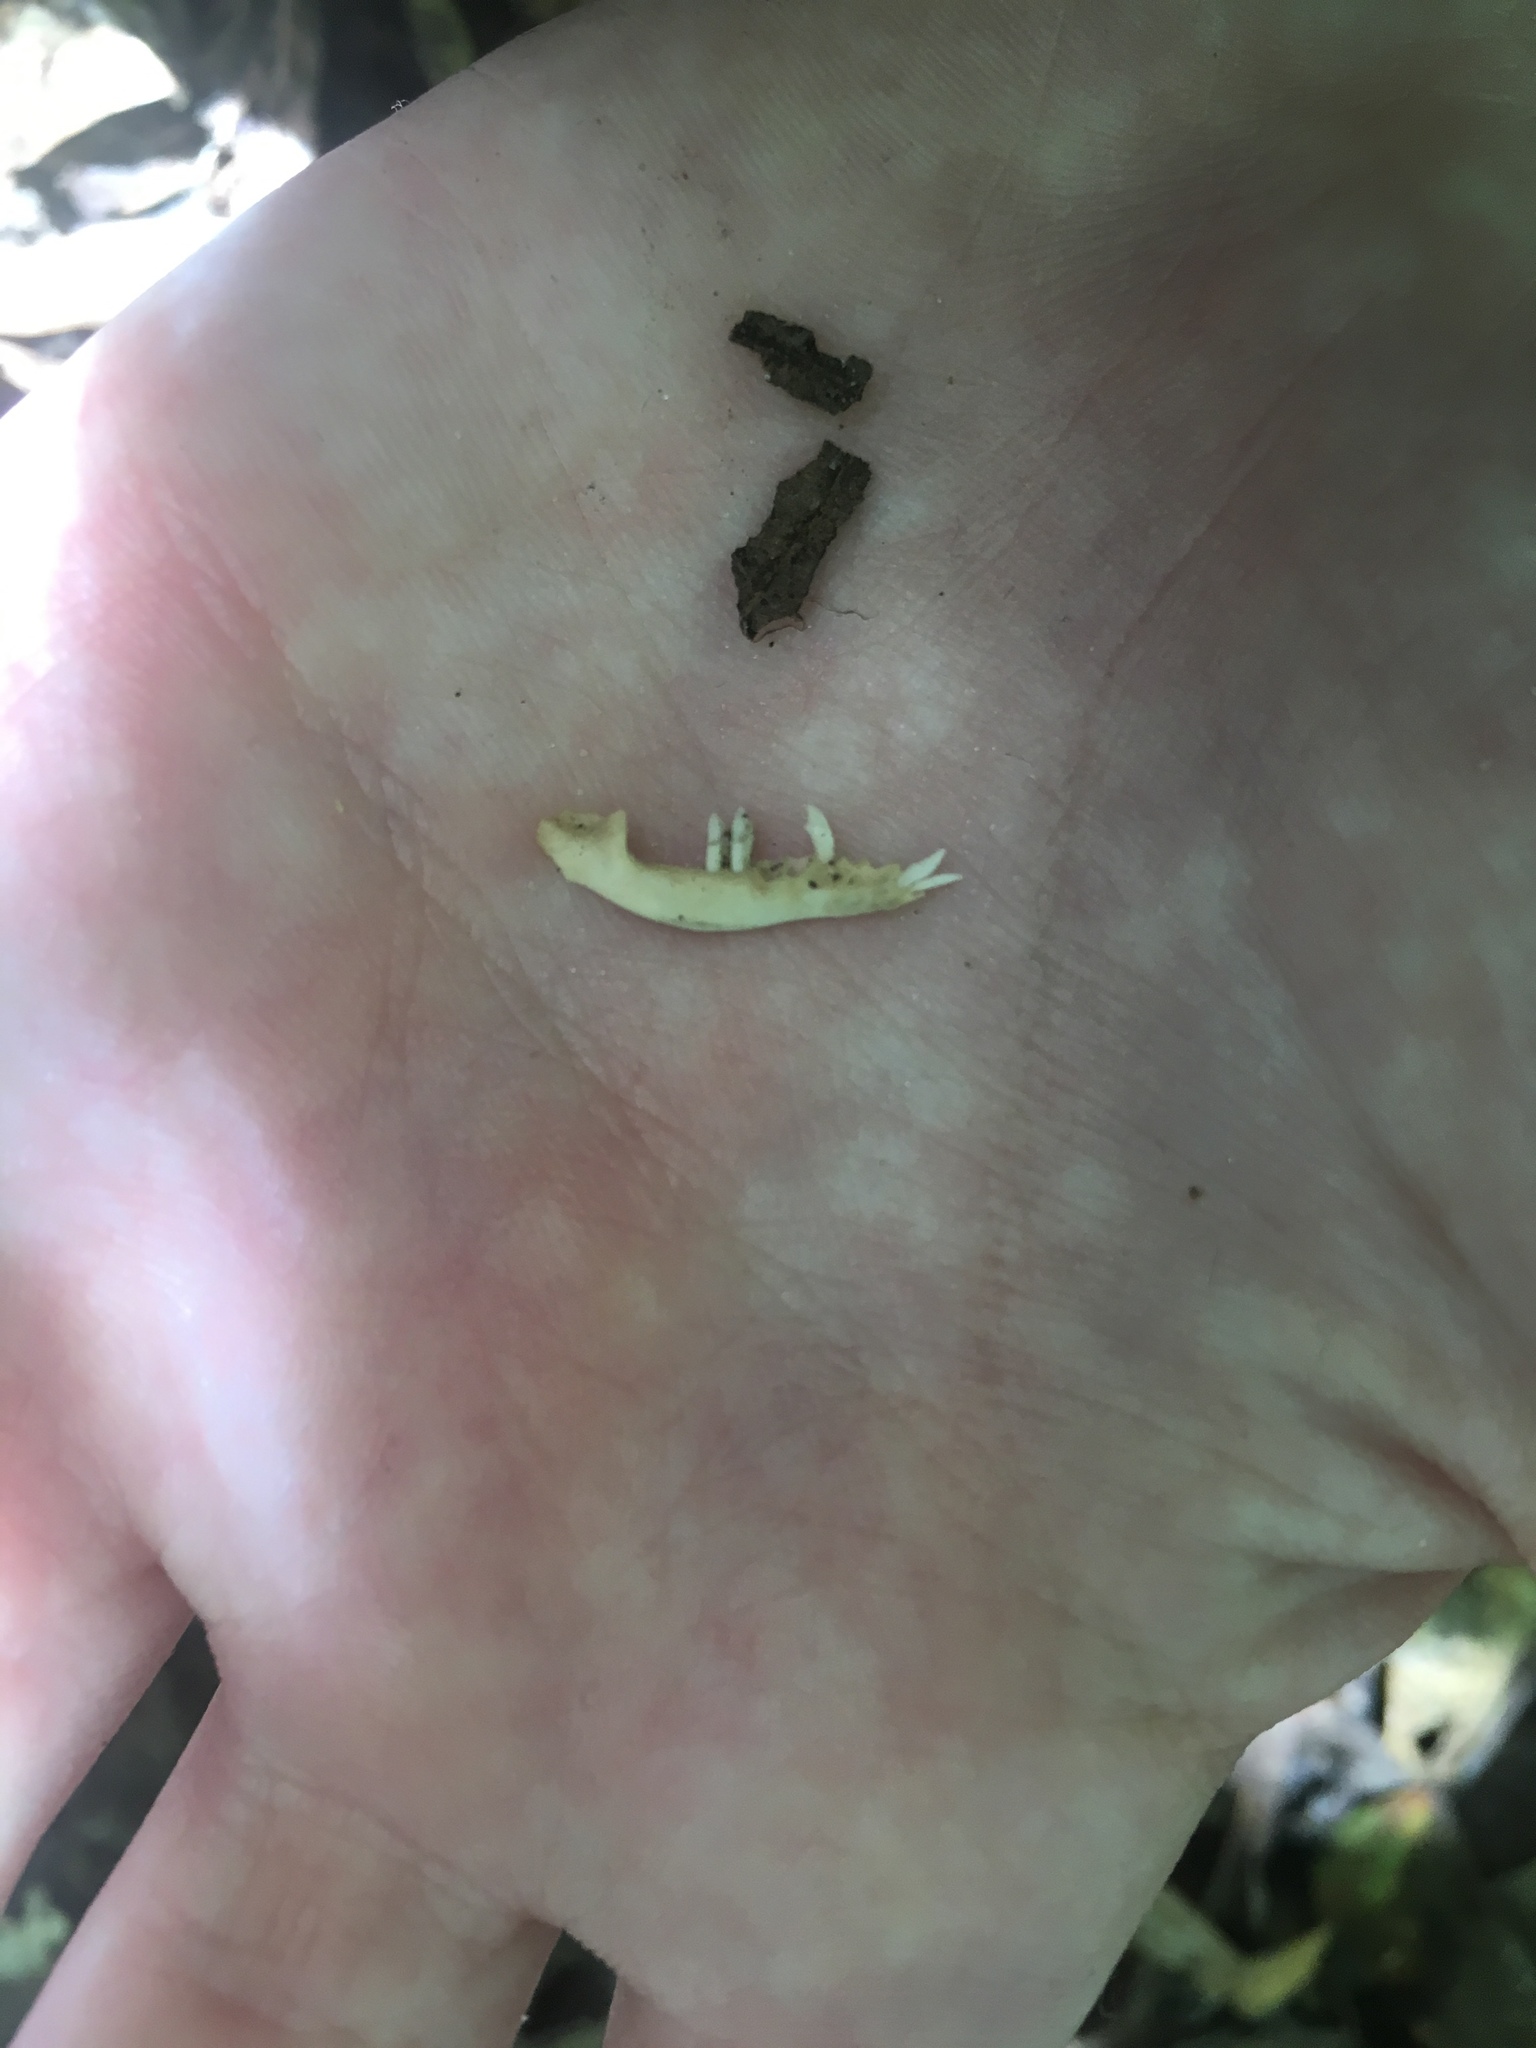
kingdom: Animalia
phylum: Chordata
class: Mammalia
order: Soricomorpha
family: Talpidae
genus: Scalopus
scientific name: Scalopus aquaticus
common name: Eastern mole
